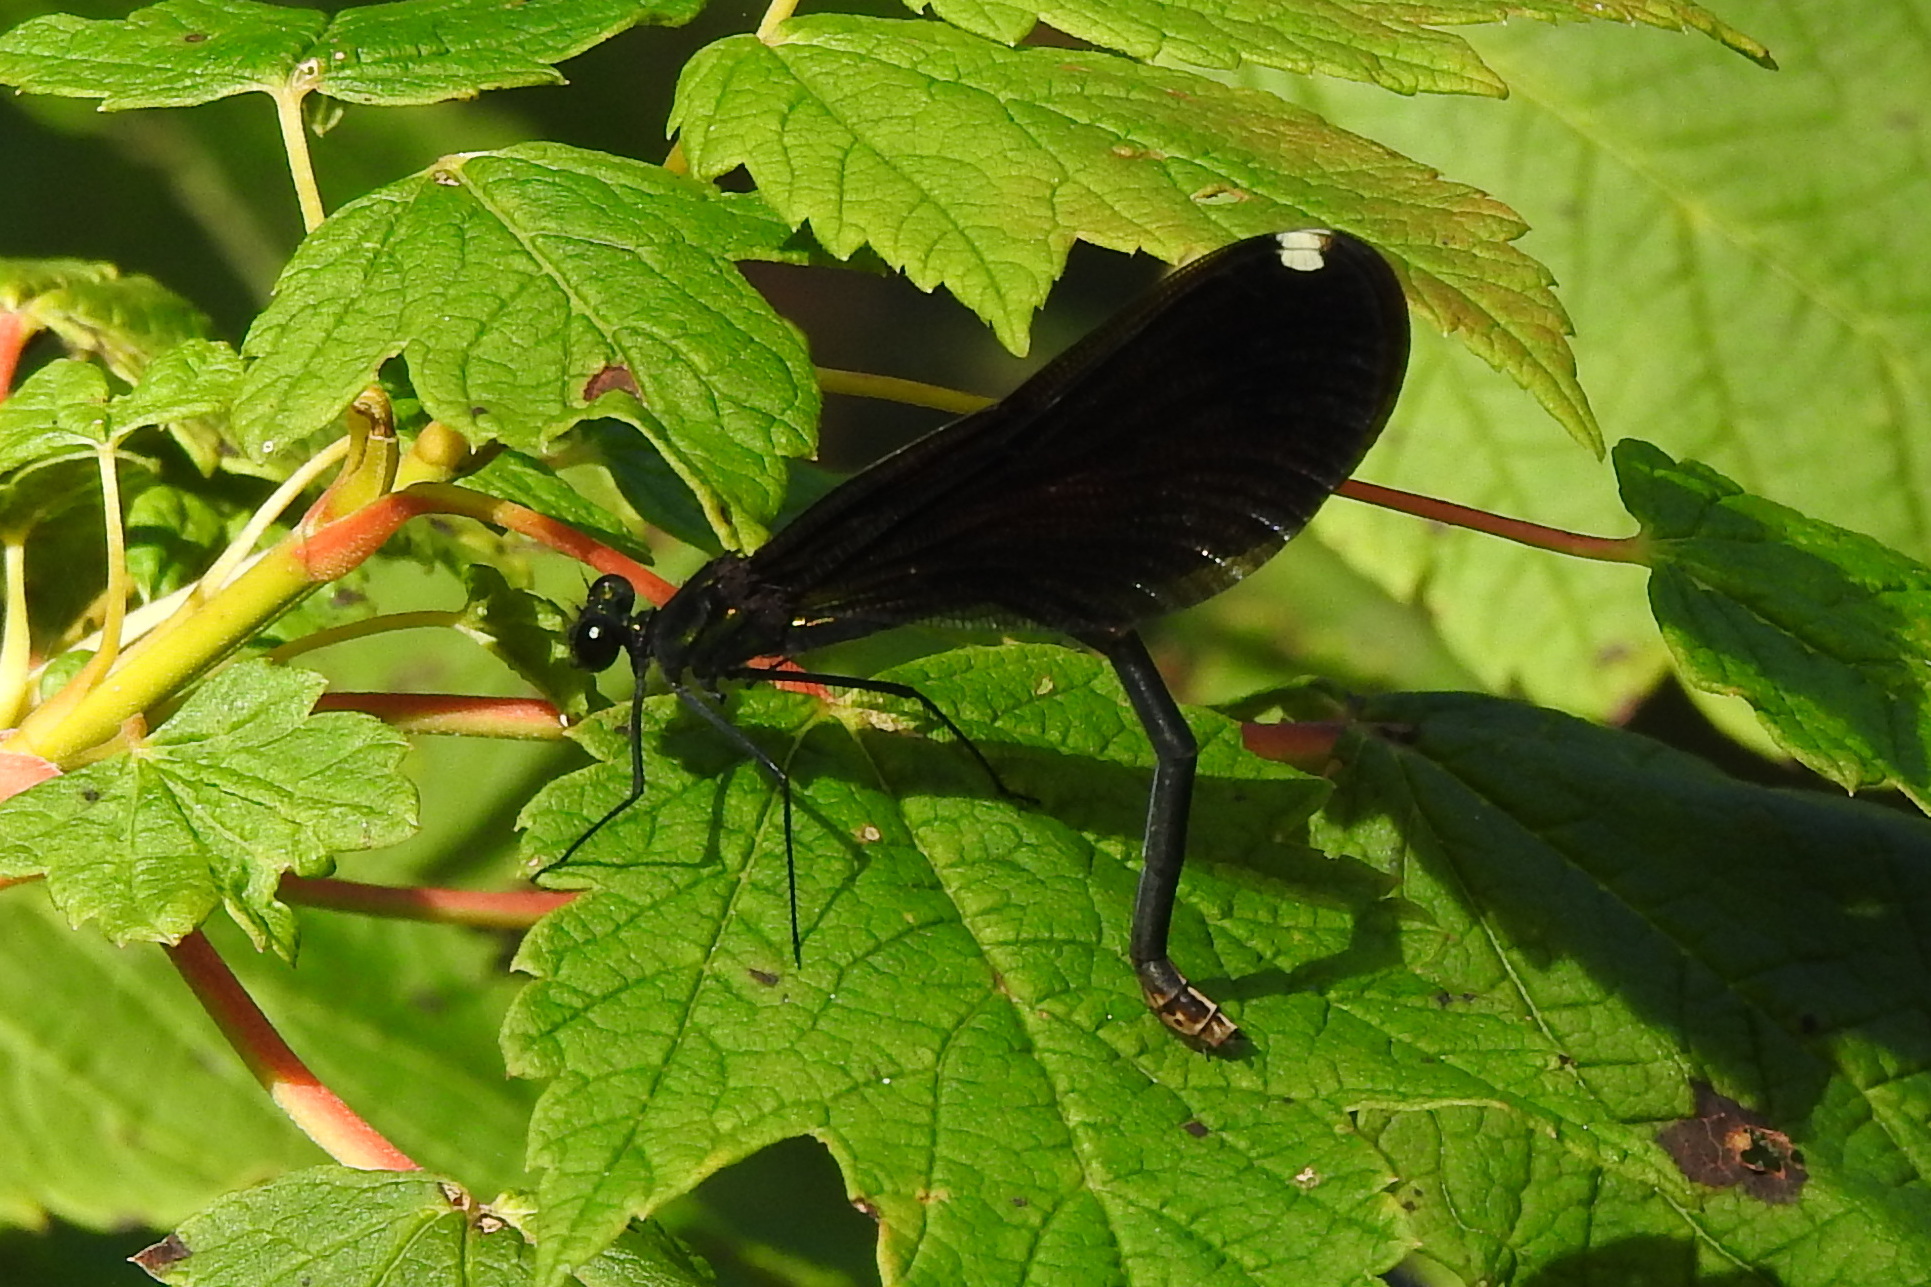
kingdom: Animalia
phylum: Arthropoda
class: Insecta
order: Odonata
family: Calopterygidae
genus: Calopteryx
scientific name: Calopteryx maculata
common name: Ebony jewelwing
